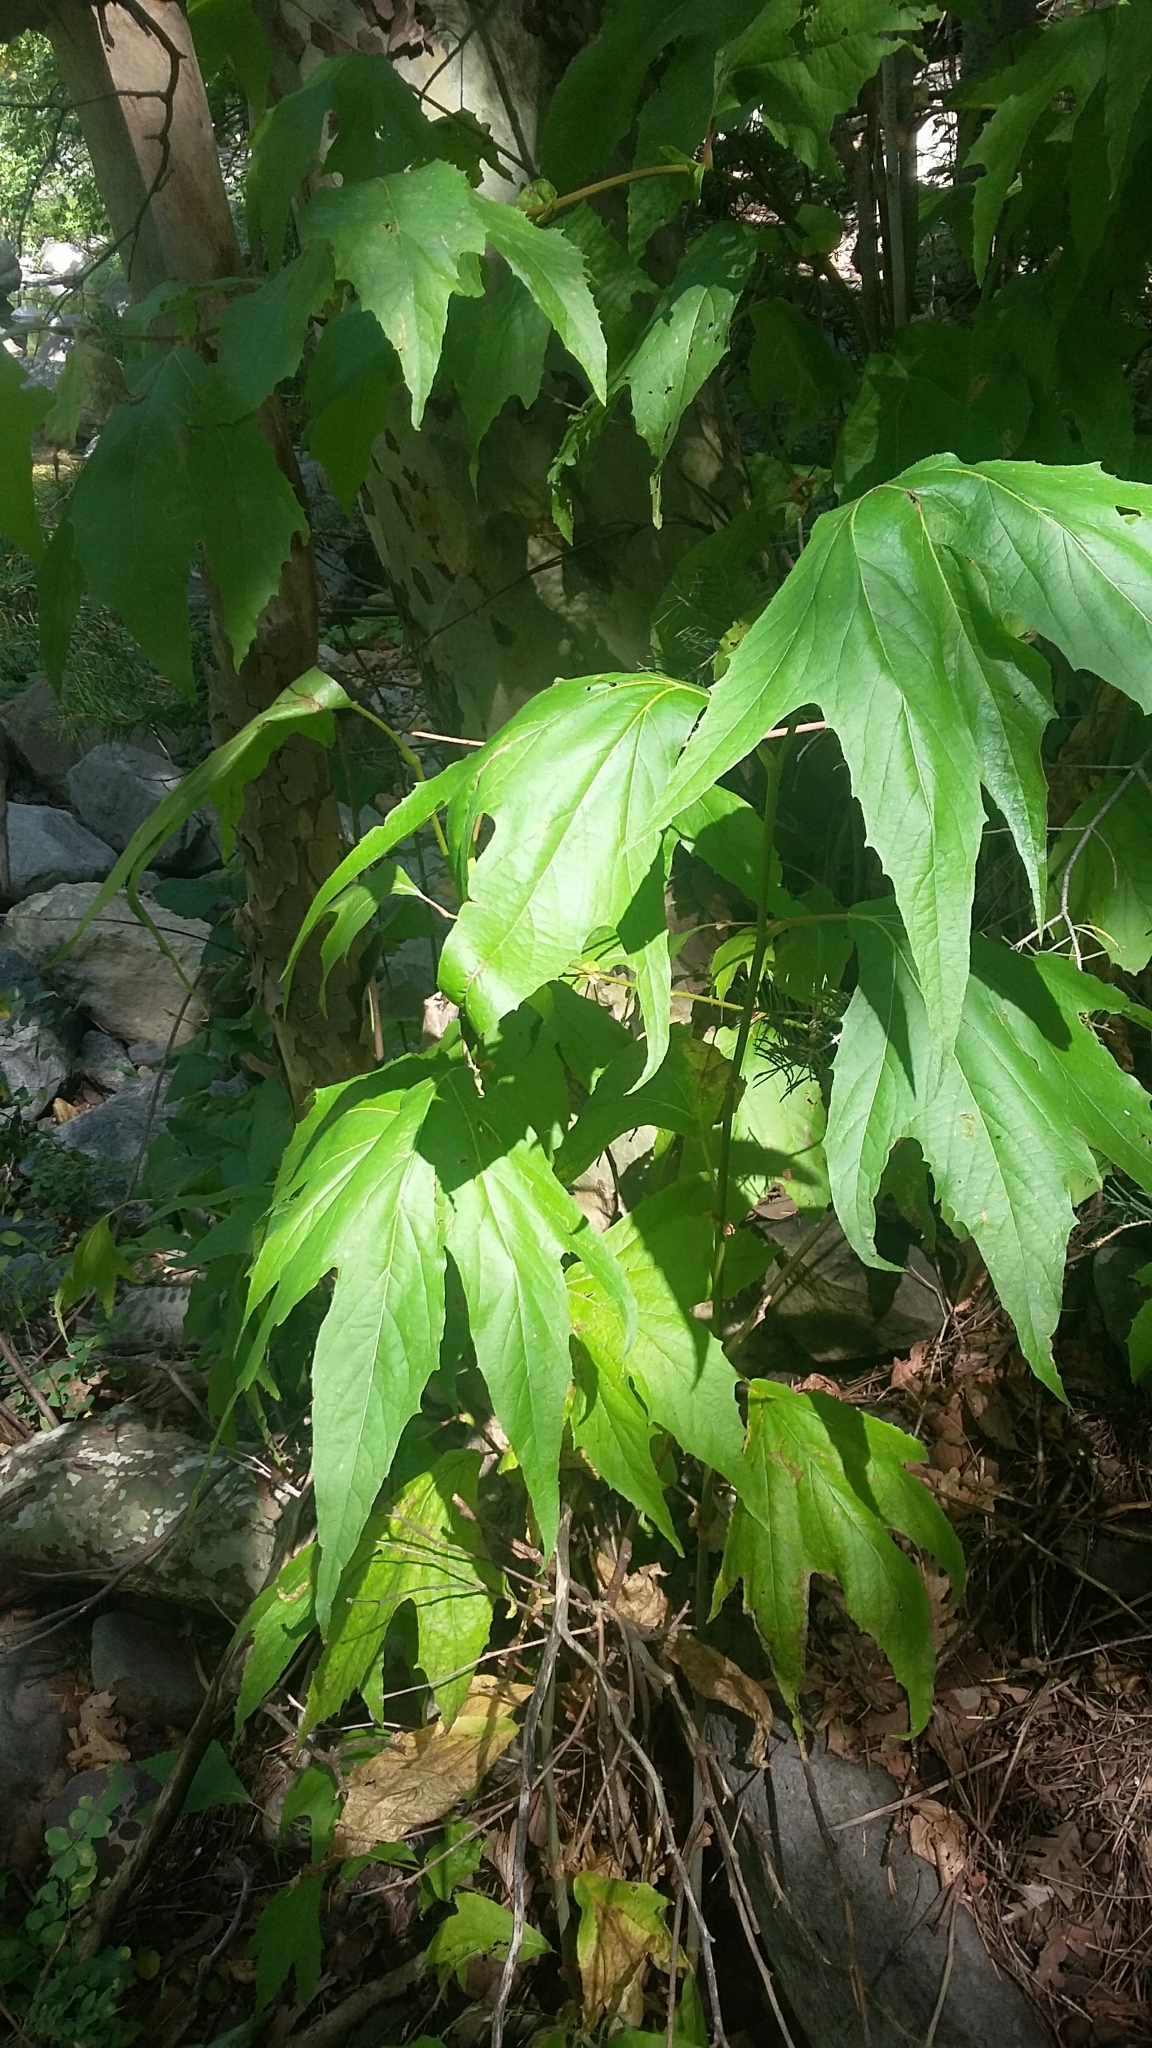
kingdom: Plantae
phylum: Tracheophyta
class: Magnoliopsida
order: Proteales
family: Platanaceae
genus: Platanus
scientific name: Platanus wrightii
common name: Arizona sycamore
